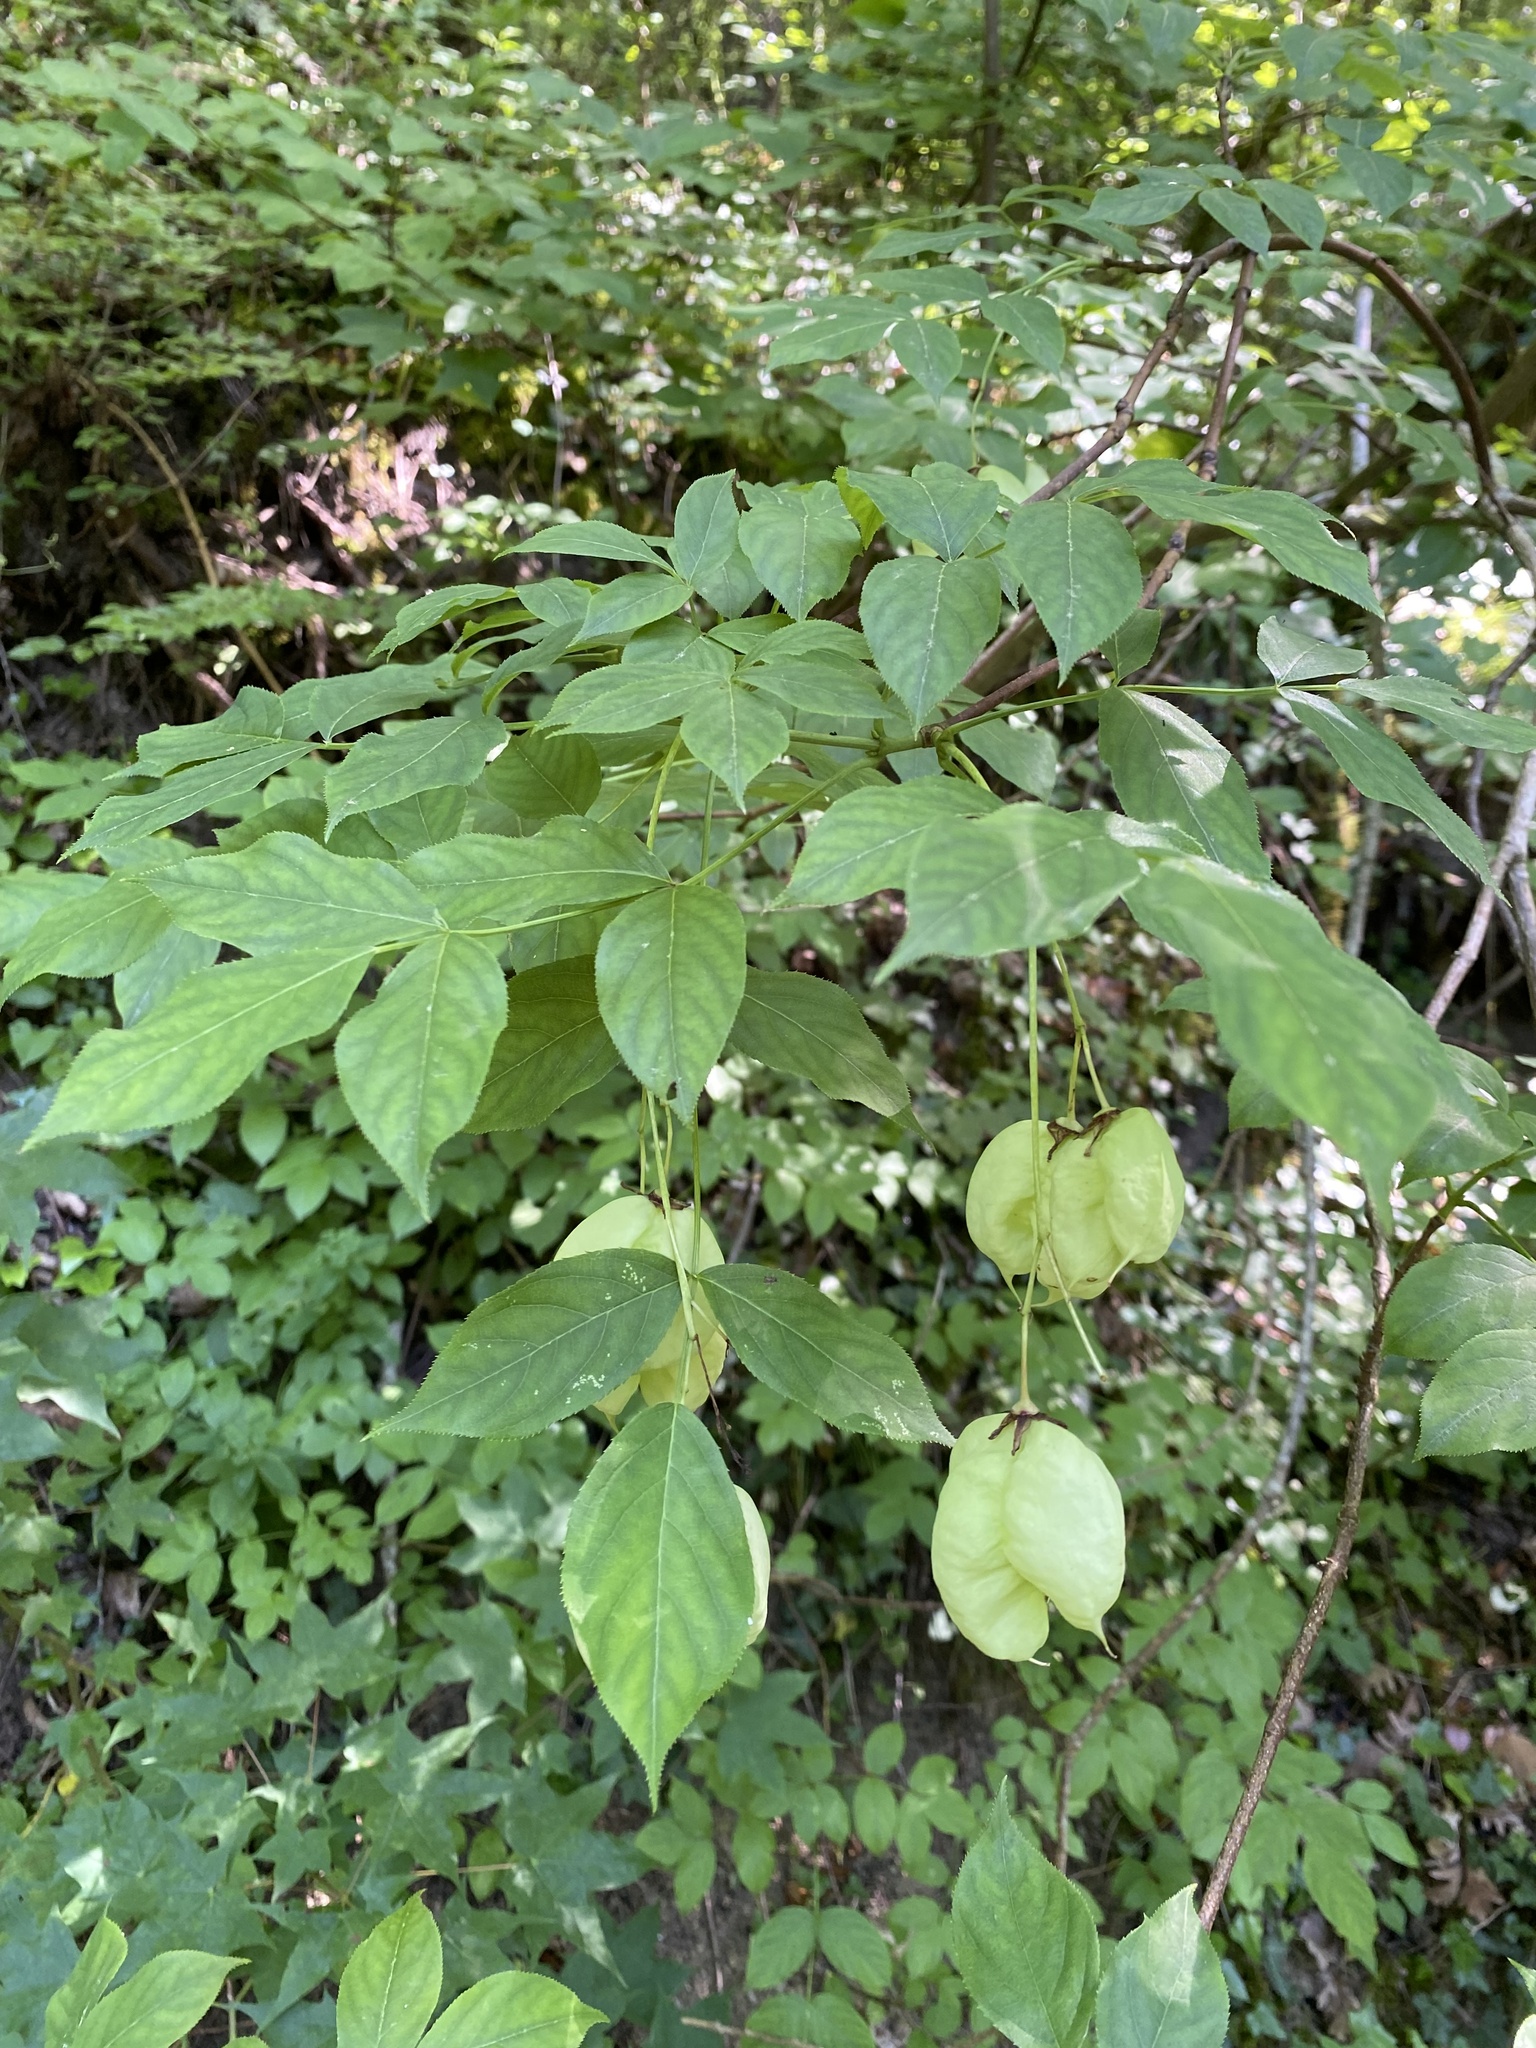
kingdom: Plantae
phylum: Tracheophyta
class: Magnoliopsida
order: Crossosomatales
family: Staphyleaceae
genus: Staphylea
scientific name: Staphylea pinnata
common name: Bladdernut
